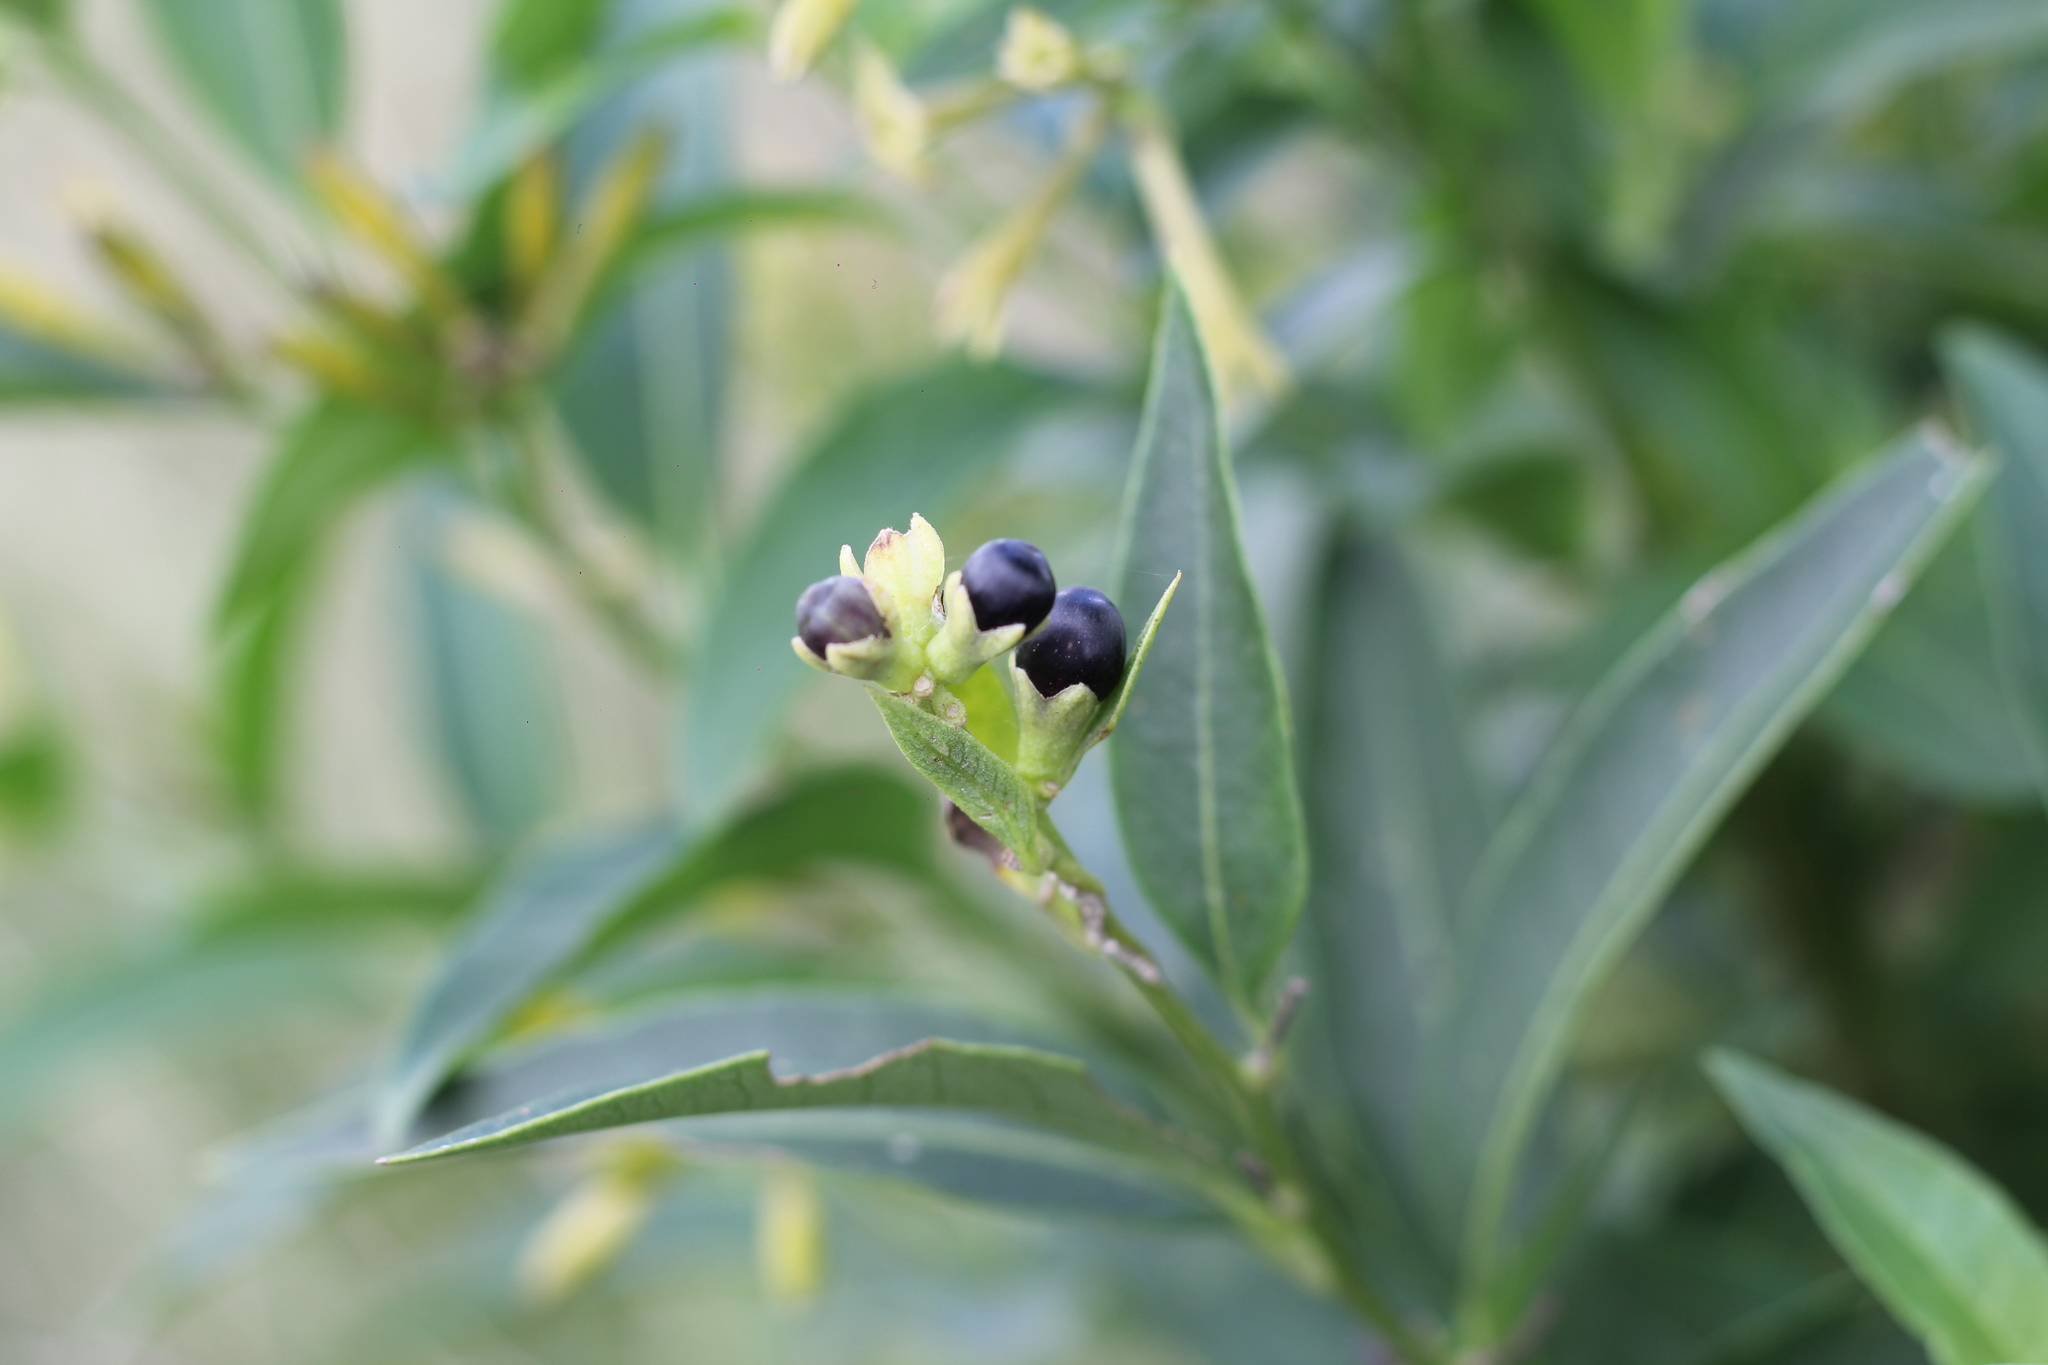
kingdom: Plantae
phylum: Tracheophyta
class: Magnoliopsida
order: Solanales
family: Solanaceae
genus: Cestrum
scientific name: Cestrum parqui
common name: Chilean cestrum
